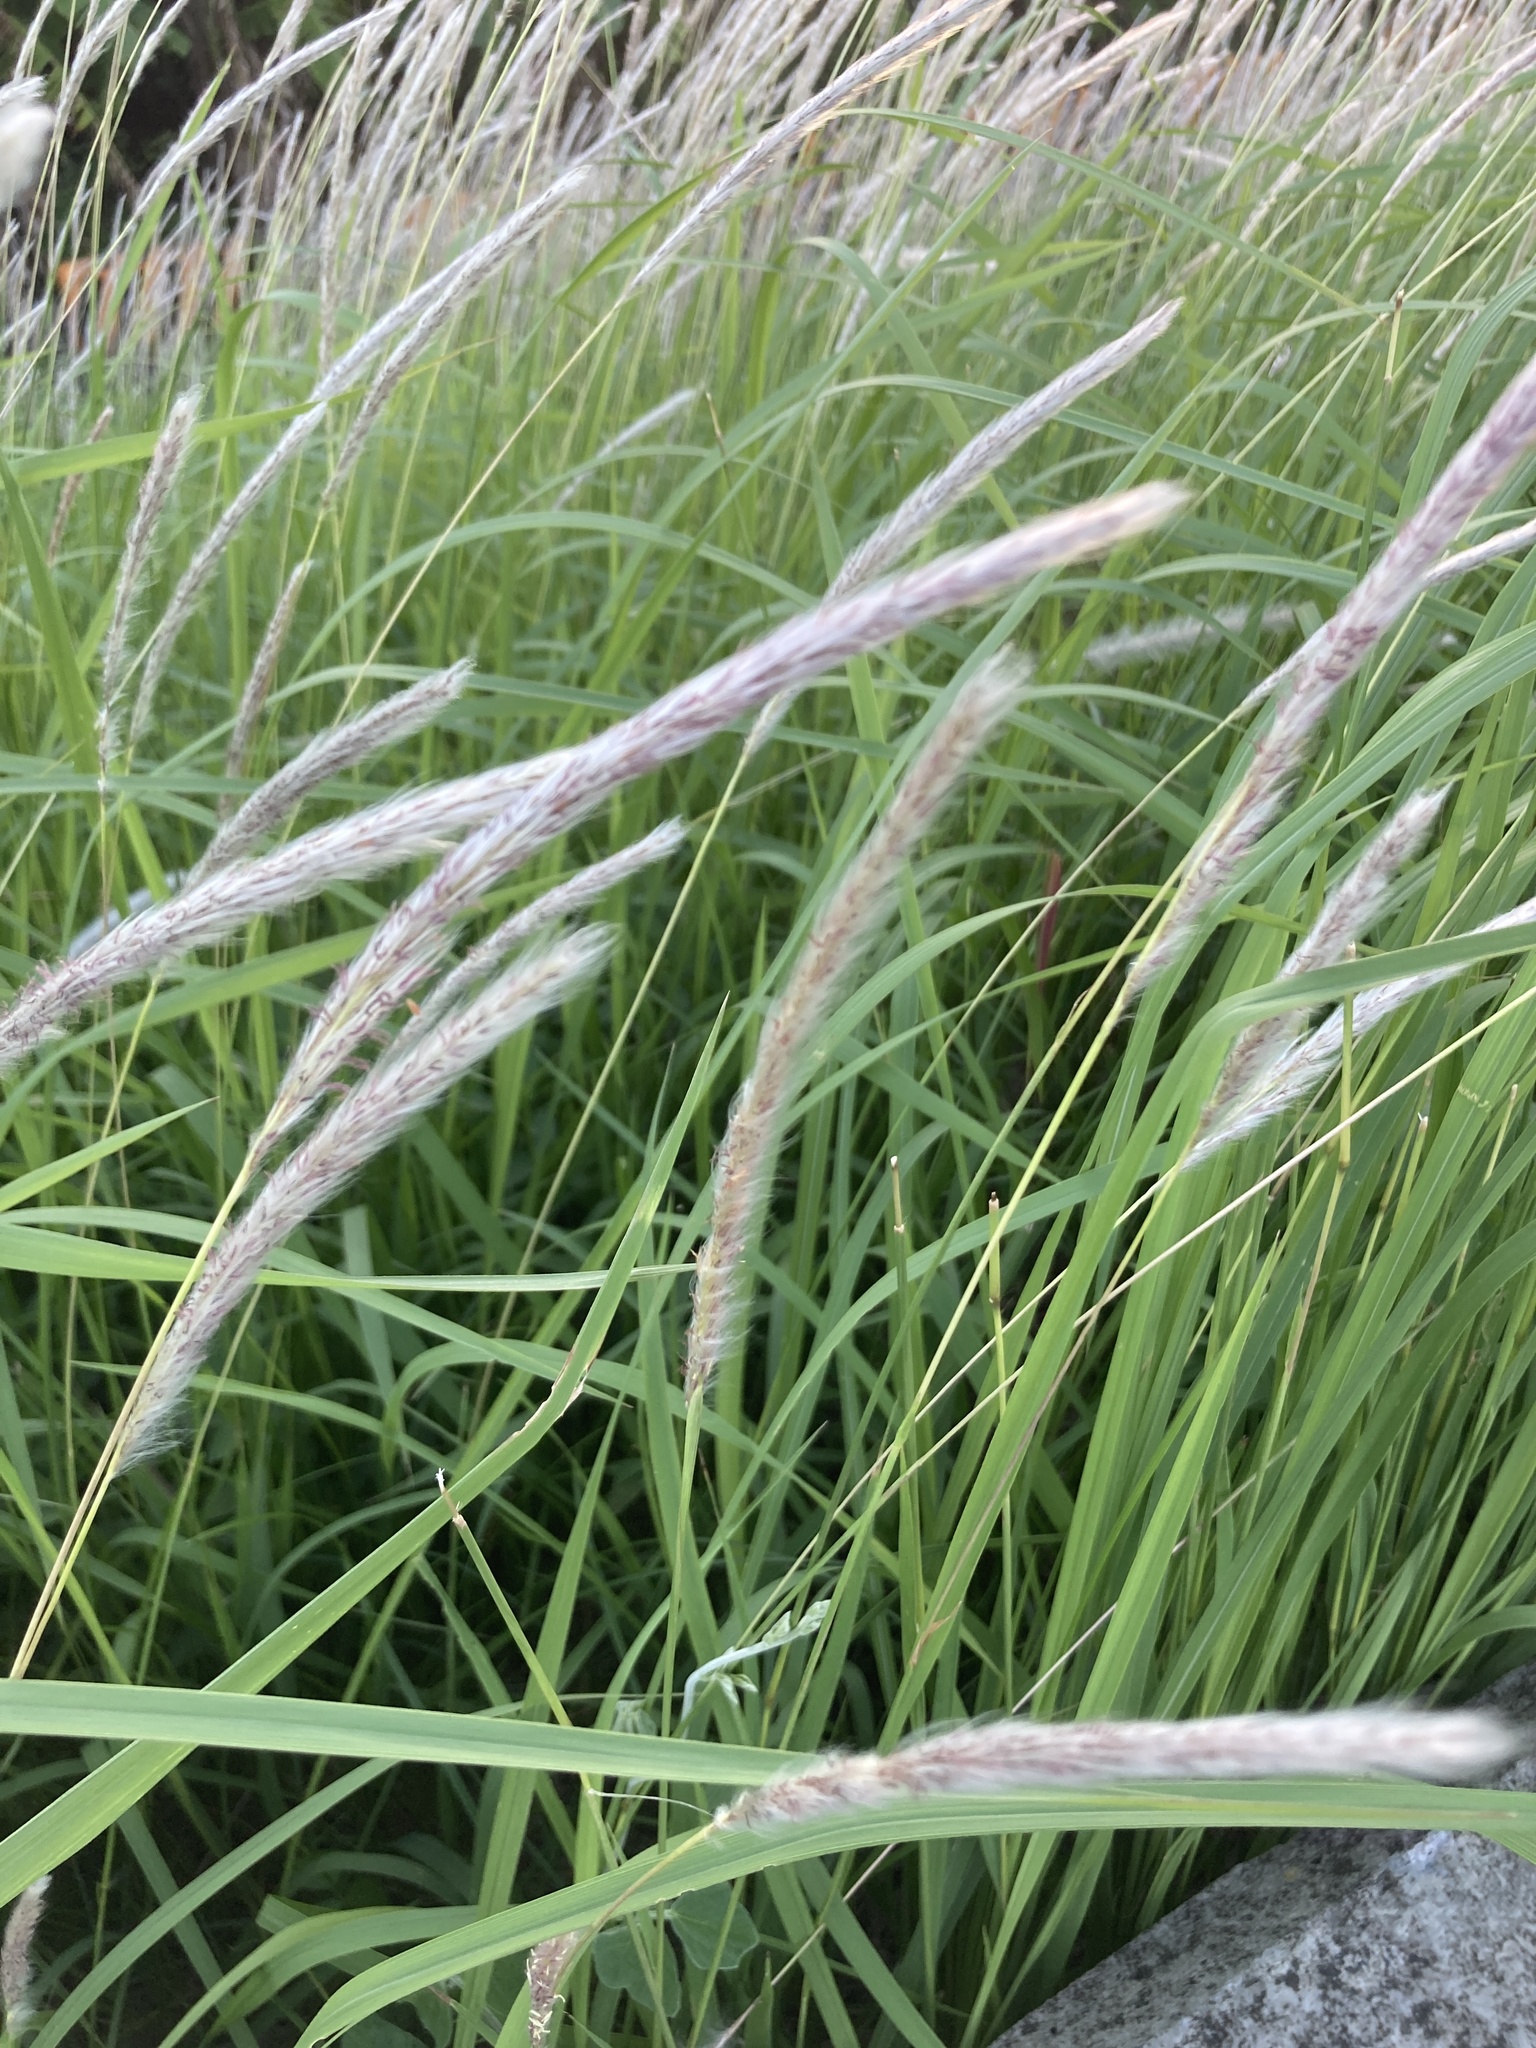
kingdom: Plantae
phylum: Tracheophyta
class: Liliopsida
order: Poales
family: Poaceae
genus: Imperata
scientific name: Imperata cylindrica
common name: Cogongrass
